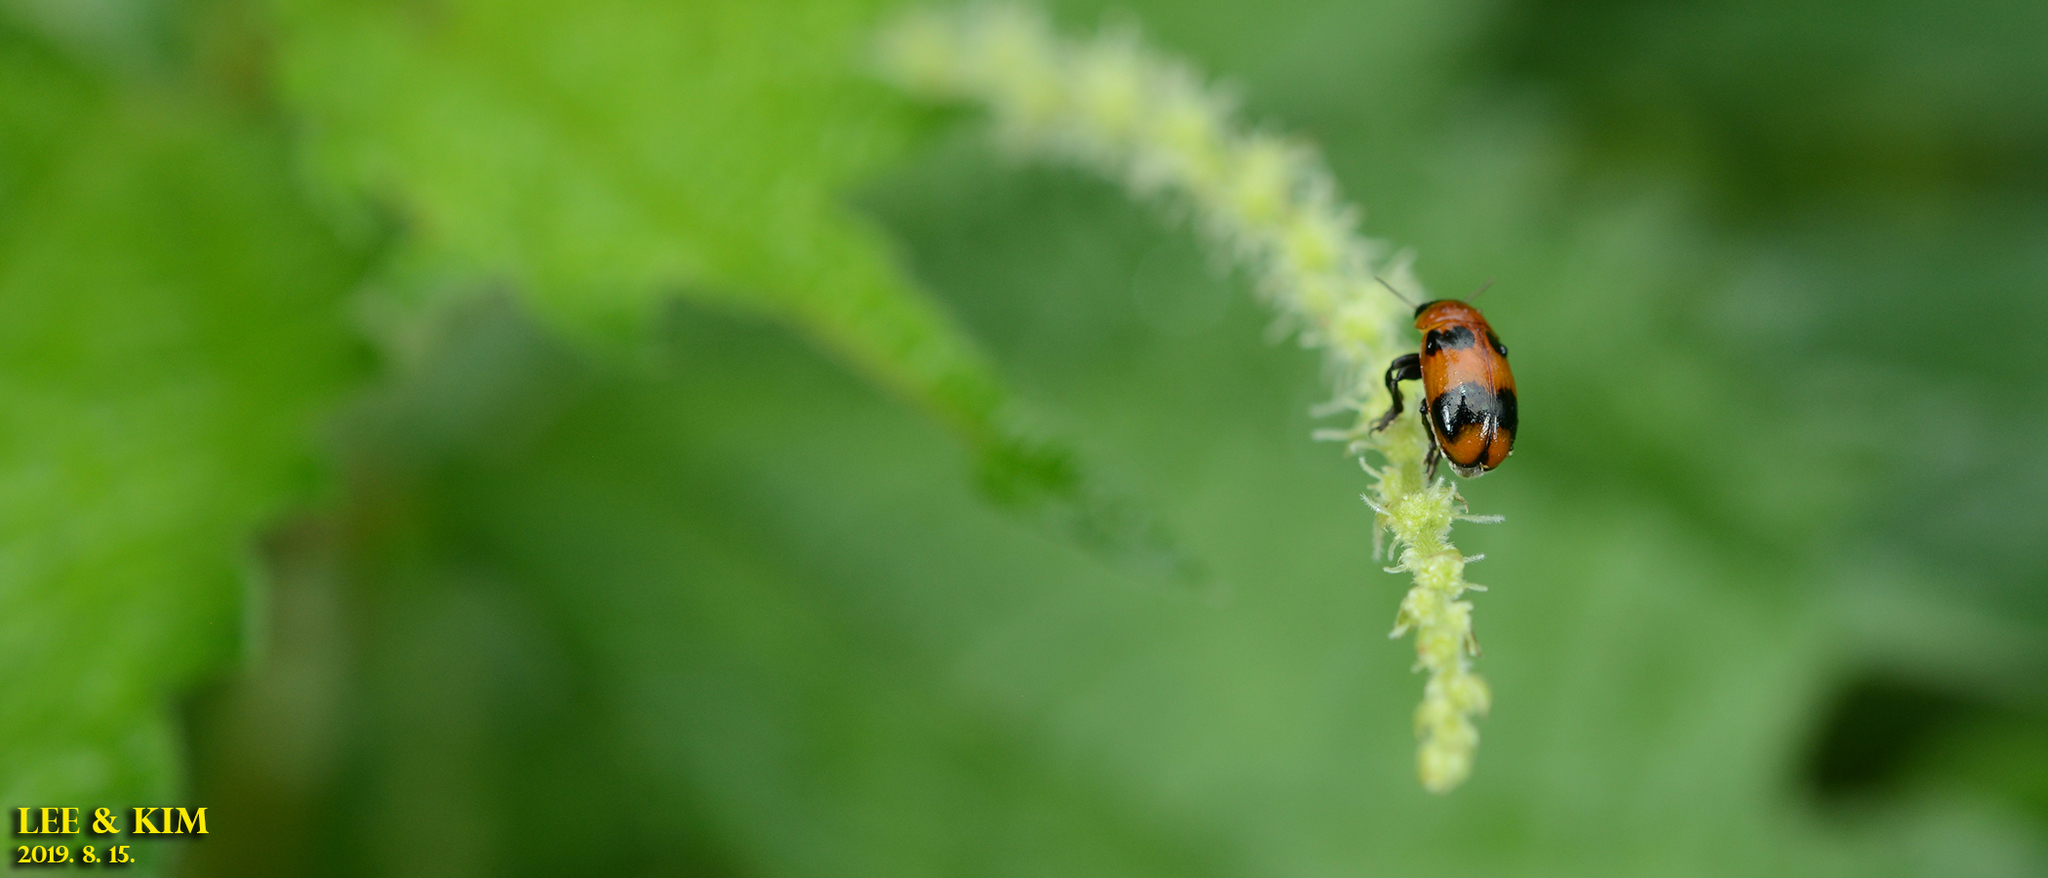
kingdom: Animalia
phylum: Arthropoda
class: Insecta
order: Coleoptera
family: Chrysomelidae
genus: Physosmaragdina
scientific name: Physosmaragdina nigrifrons
